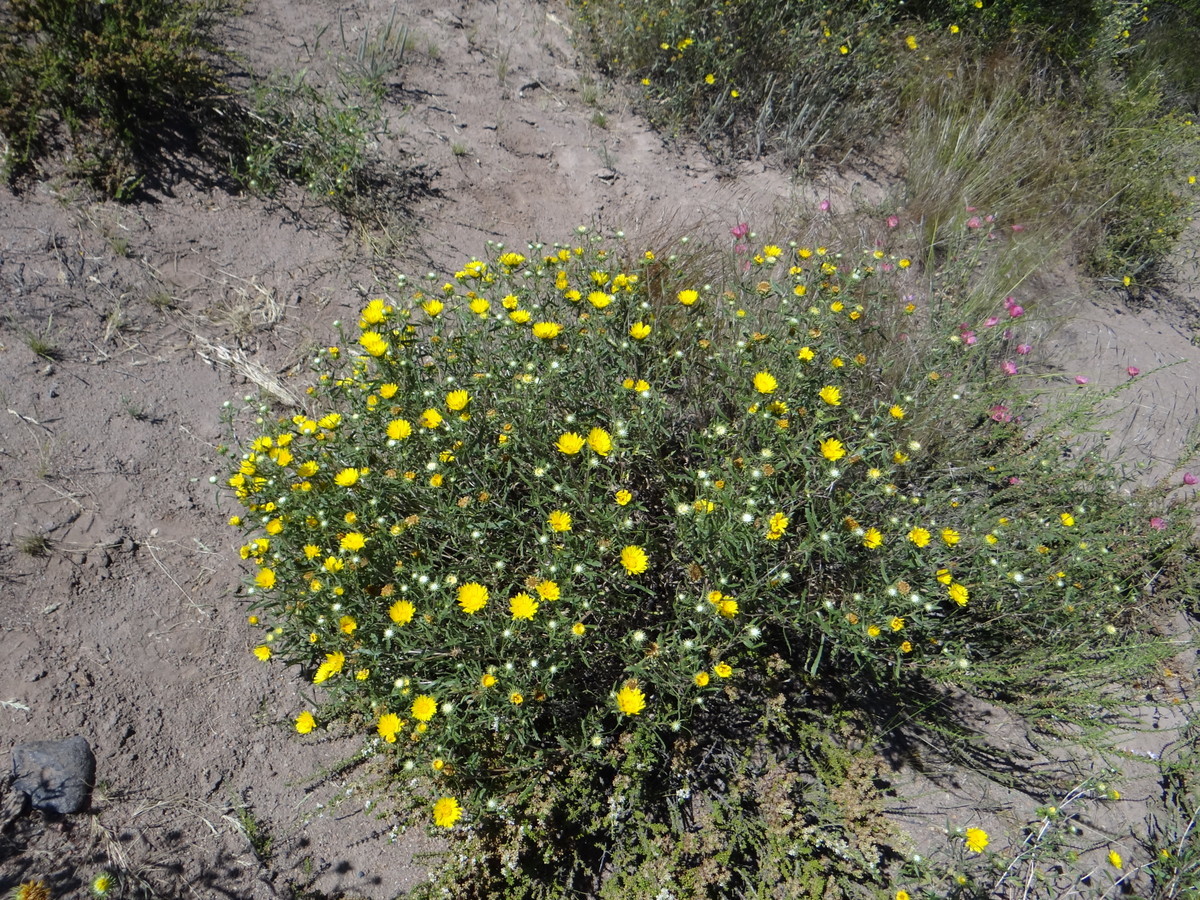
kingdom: Plantae
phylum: Tracheophyta
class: Magnoliopsida
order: Asterales
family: Asteraceae
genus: Grindelia
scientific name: Grindelia brachystephana
